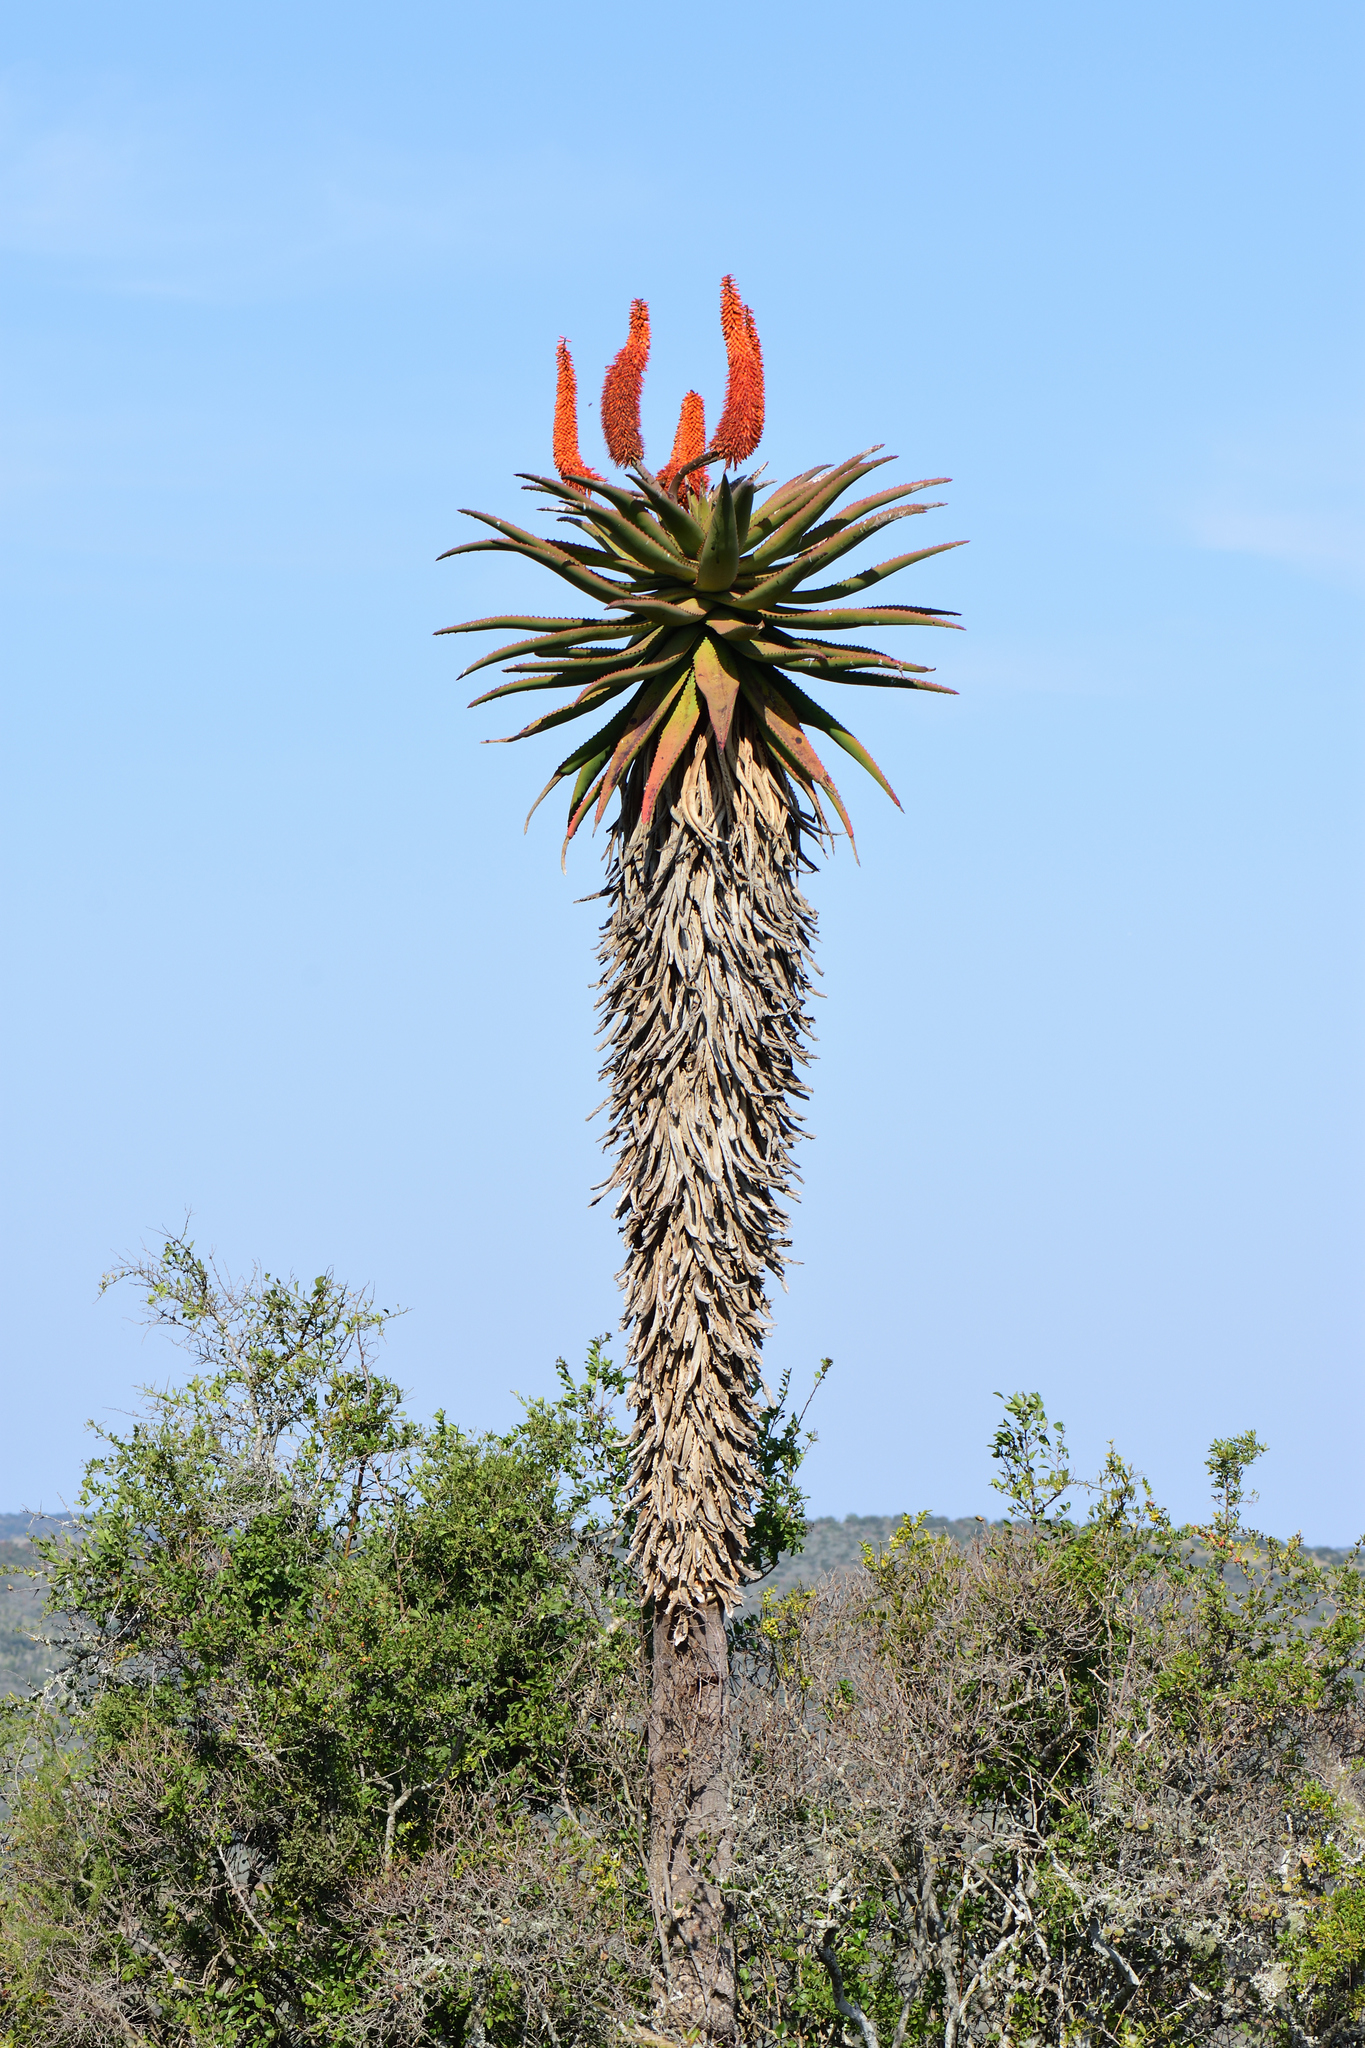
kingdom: Plantae
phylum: Tracheophyta
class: Liliopsida
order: Asparagales
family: Asphodelaceae
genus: Aloe
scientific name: Aloe ferox
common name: Bitter aloe
